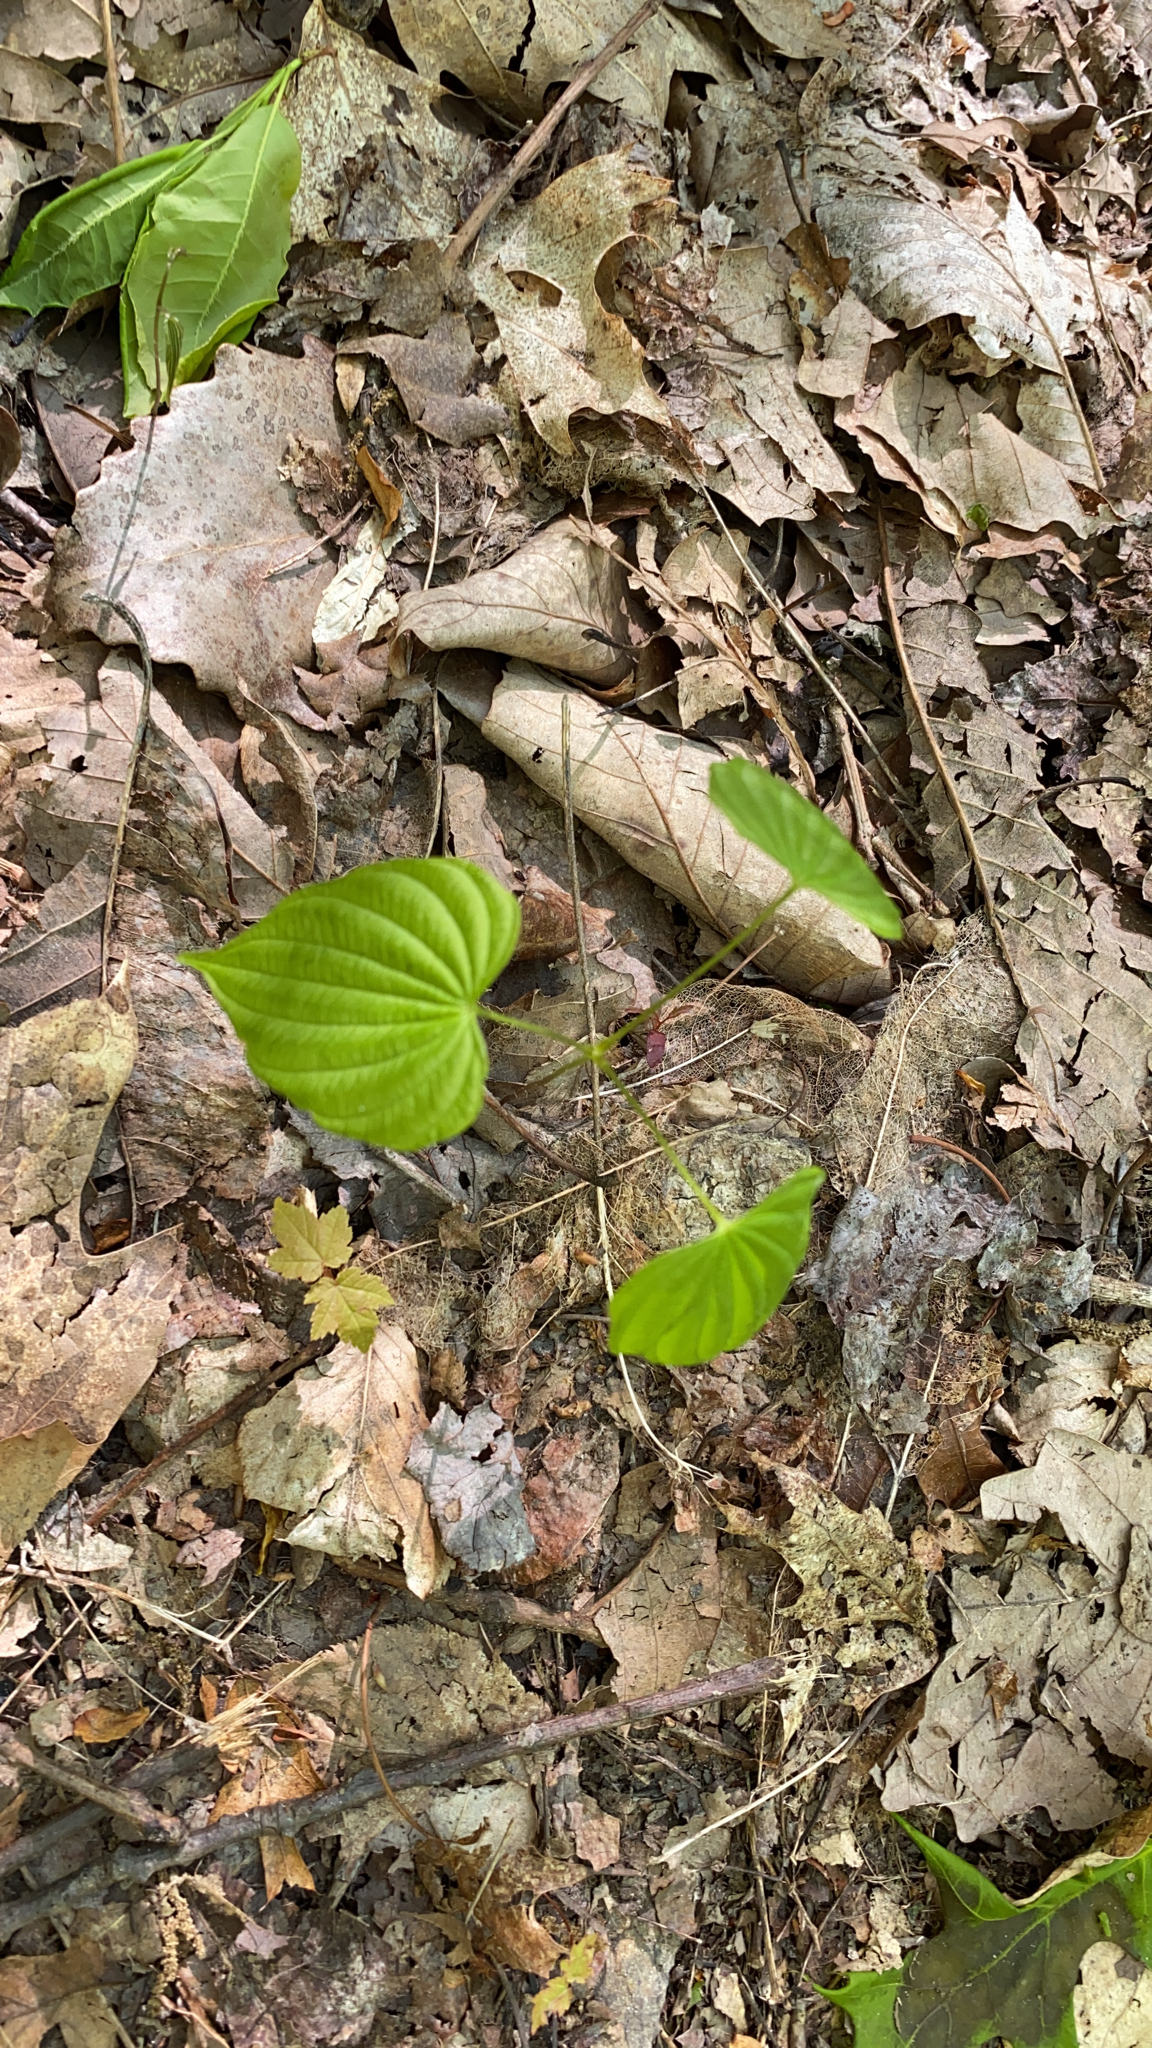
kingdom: Plantae
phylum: Tracheophyta
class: Liliopsida
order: Dioscoreales
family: Dioscoreaceae
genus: Dioscorea
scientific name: Dioscorea villosa
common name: Wild yam
